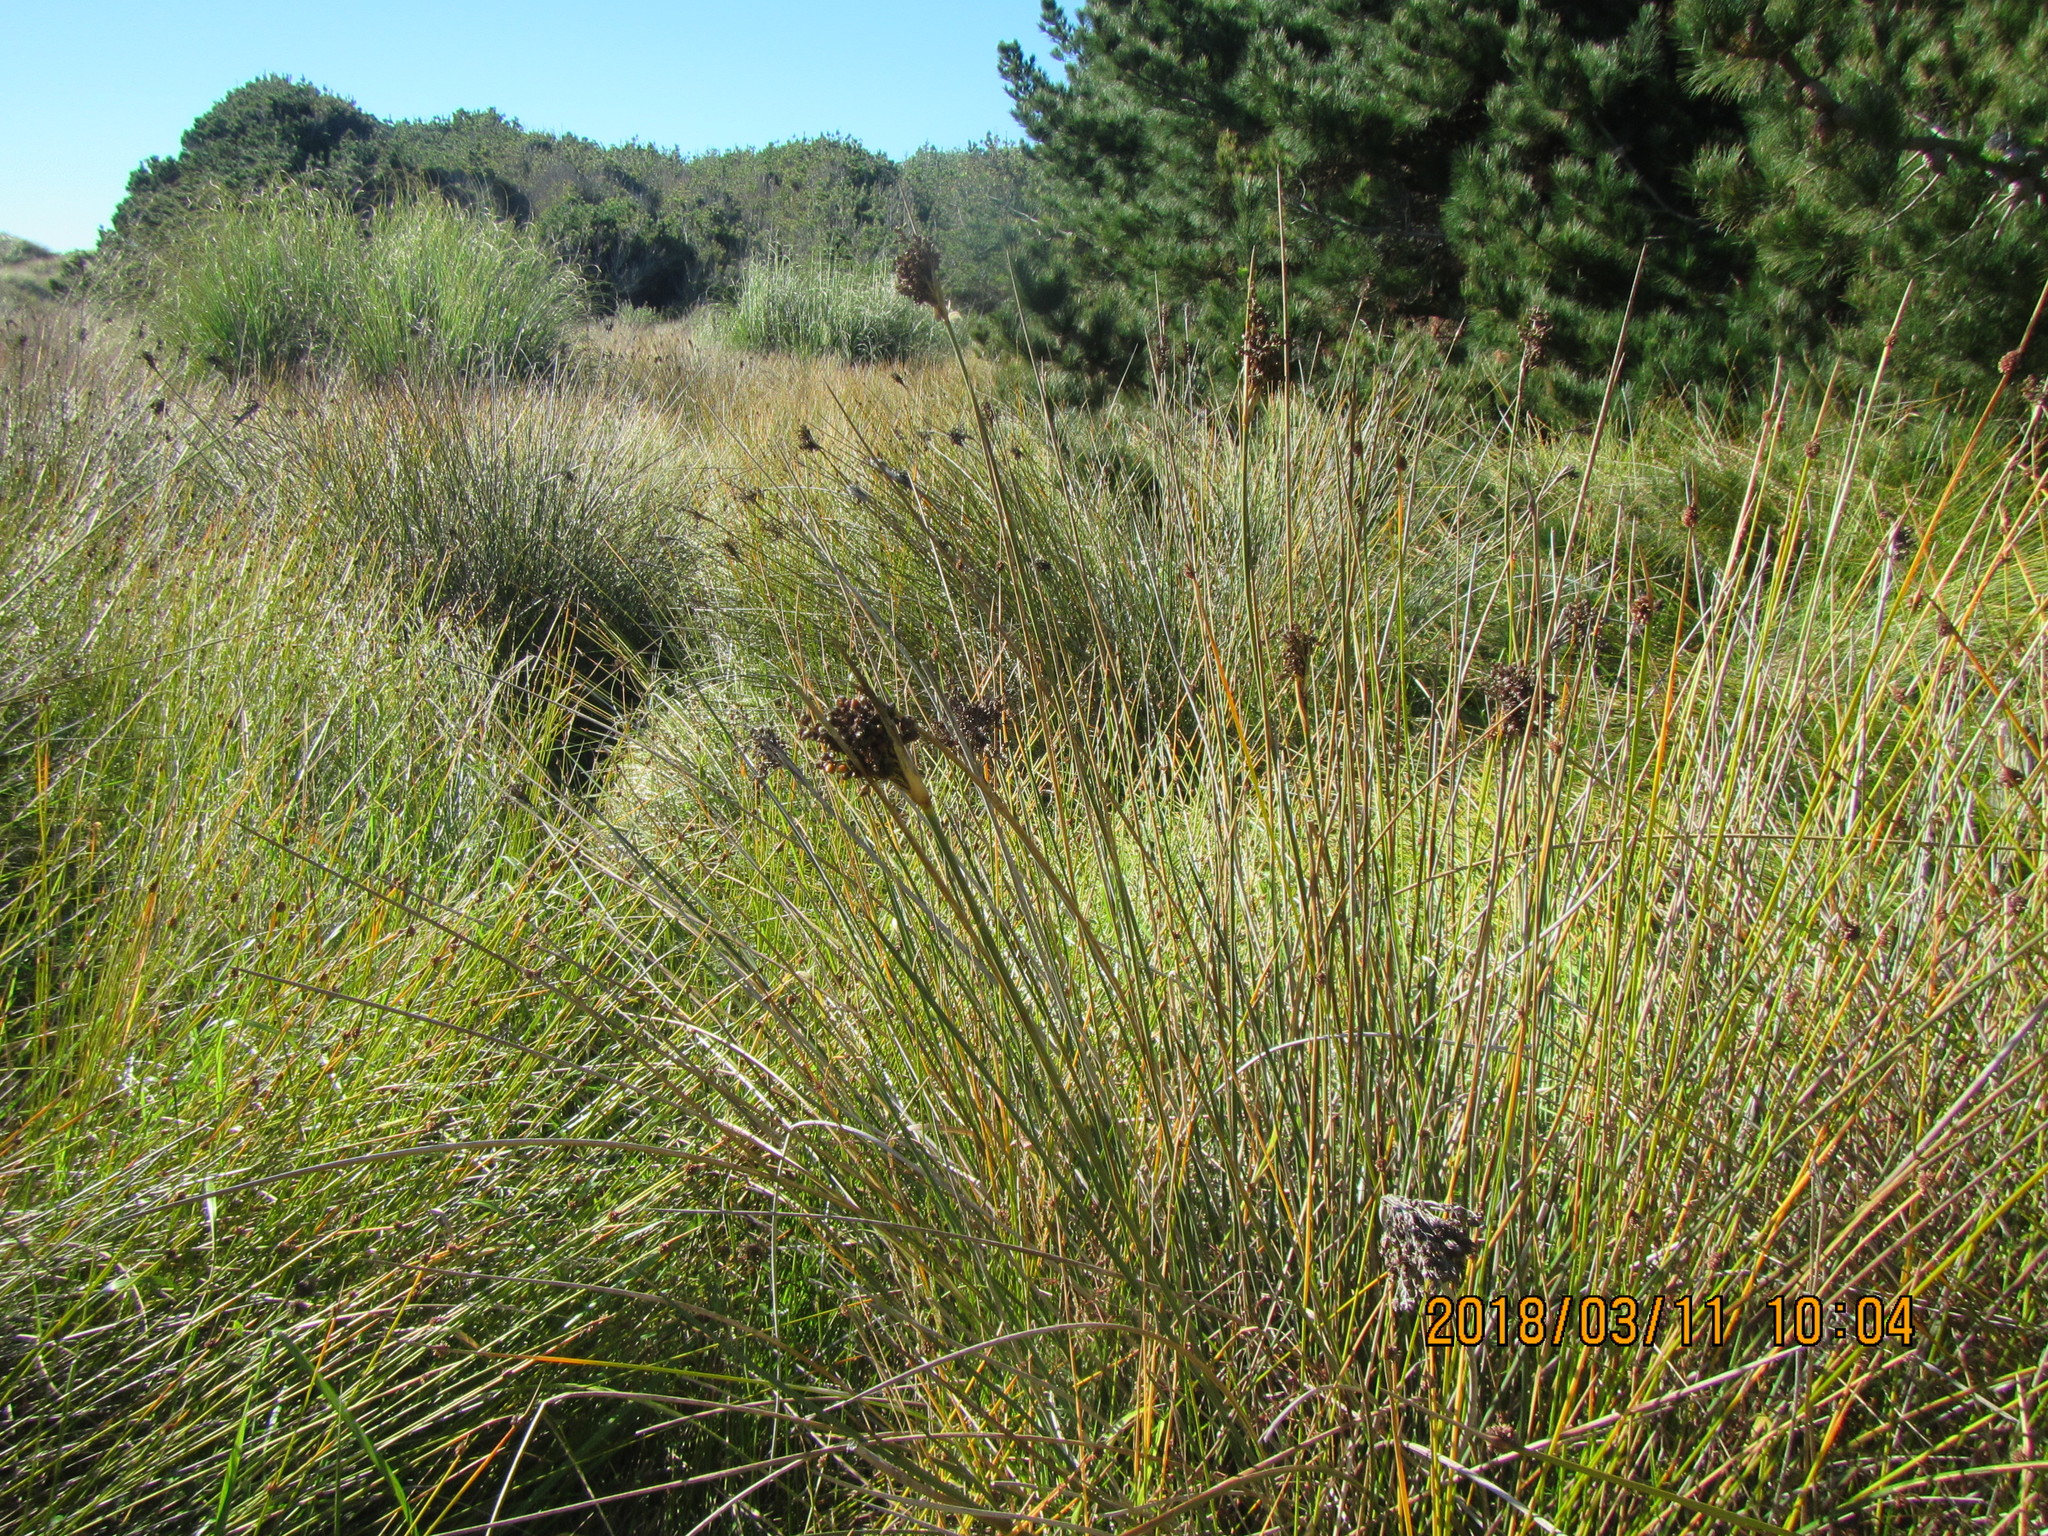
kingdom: Plantae
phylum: Tracheophyta
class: Liliopsida
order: Poales
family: Juncaceae
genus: Juncus
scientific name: Juncus acutus
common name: Sharp rush
